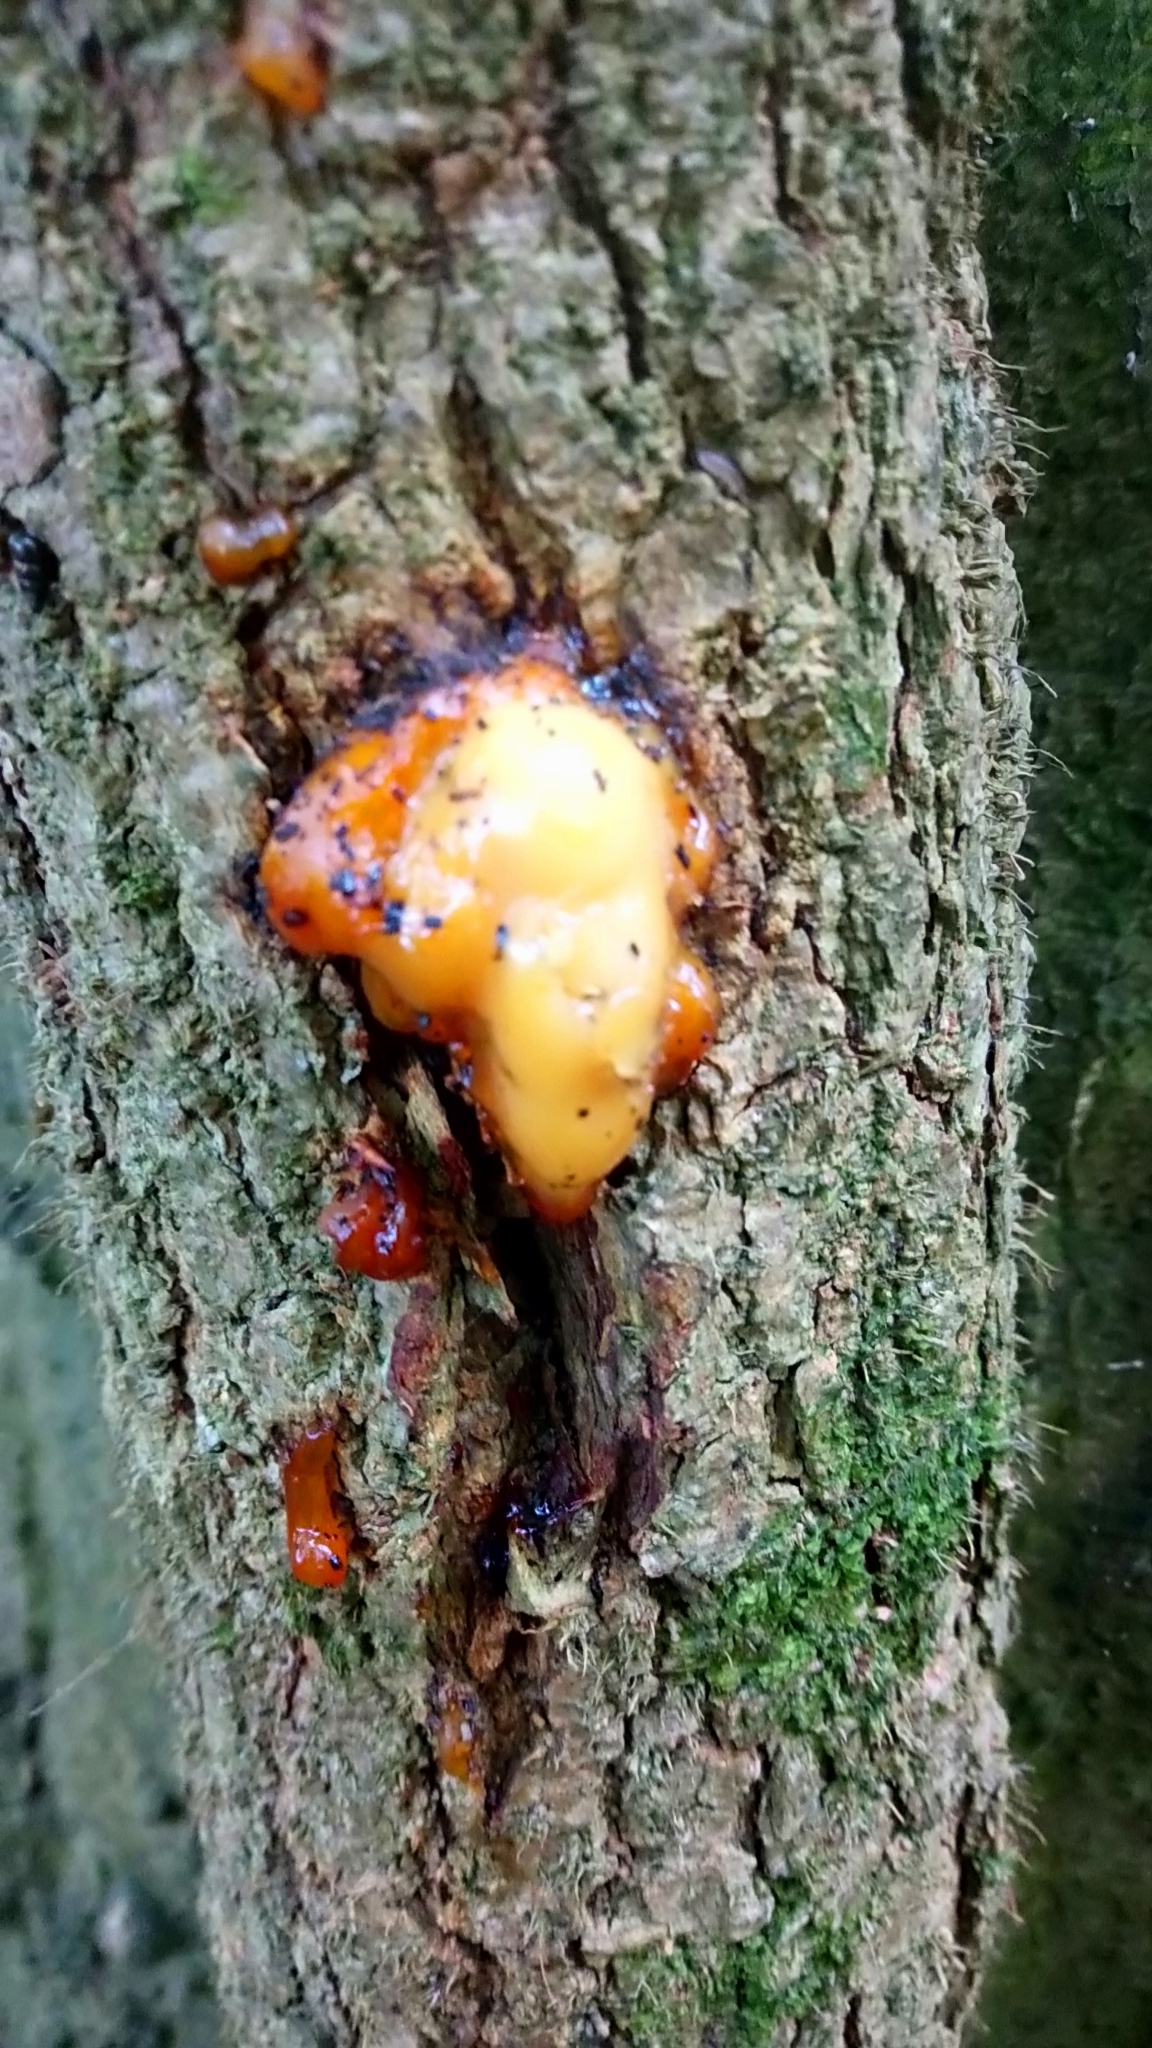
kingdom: Fungi
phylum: Ascomycota
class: Sordariomycetes
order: Hypocreales
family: Nectriaceae
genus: Fusicolla
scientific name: Fusicolla merismoides
